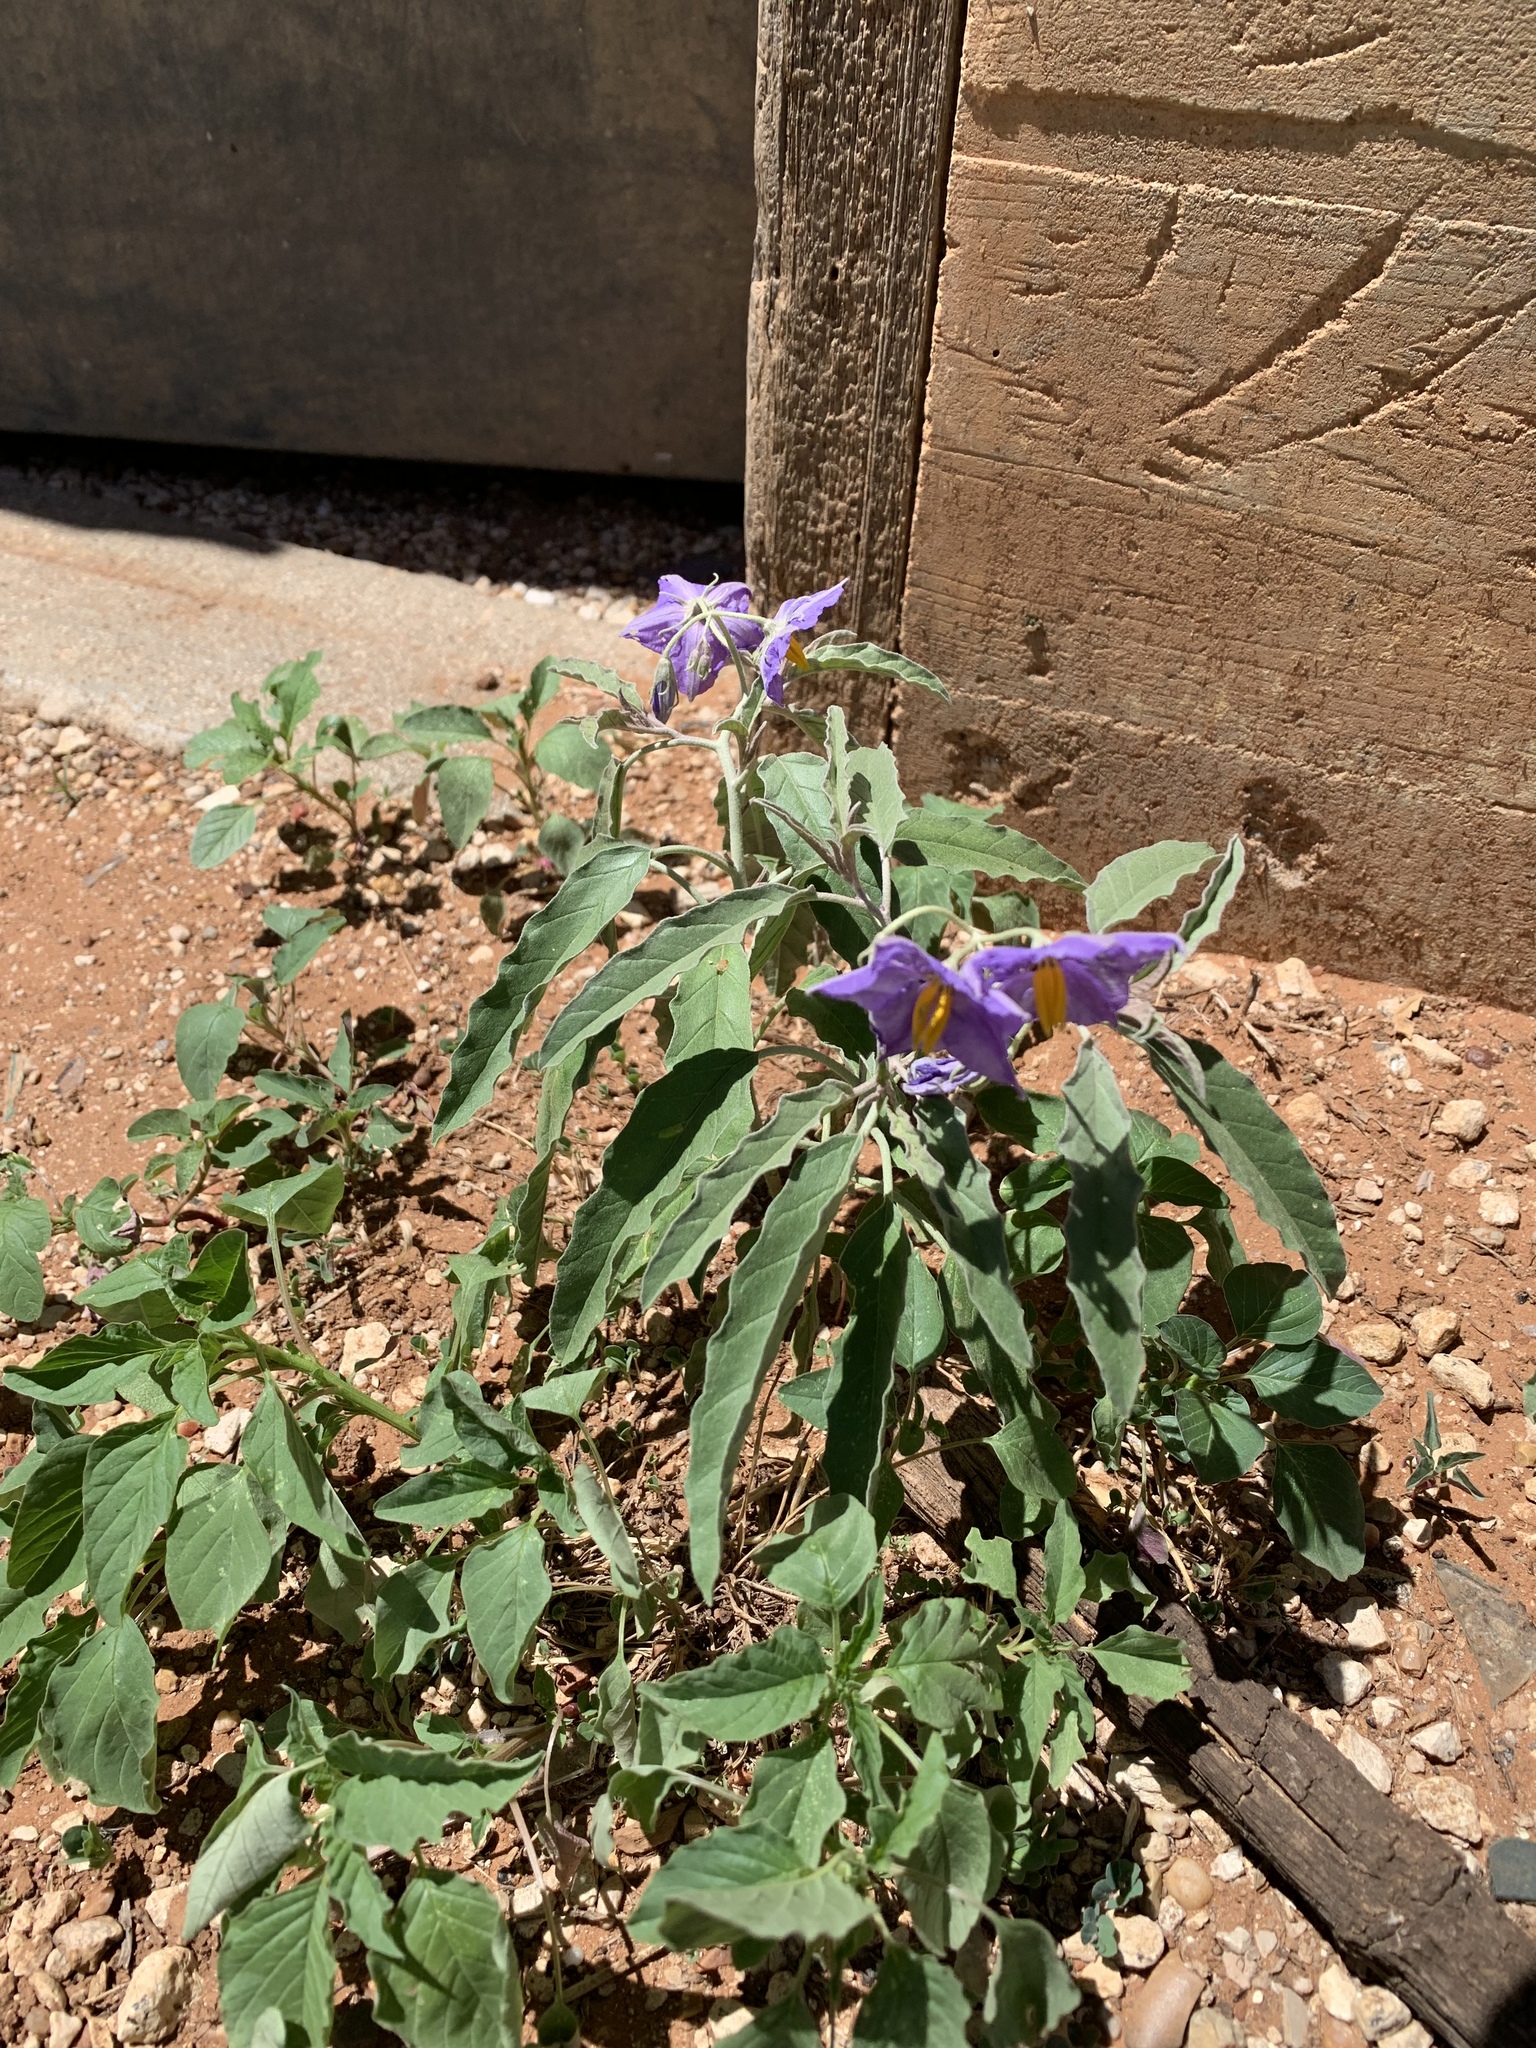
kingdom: Plantae
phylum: Tracheophyta
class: Magnoliopsida
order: Solanales
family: Solanaceae
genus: Solanum
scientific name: Solanum elaeagnifolium
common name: Silverleaf nightshade
